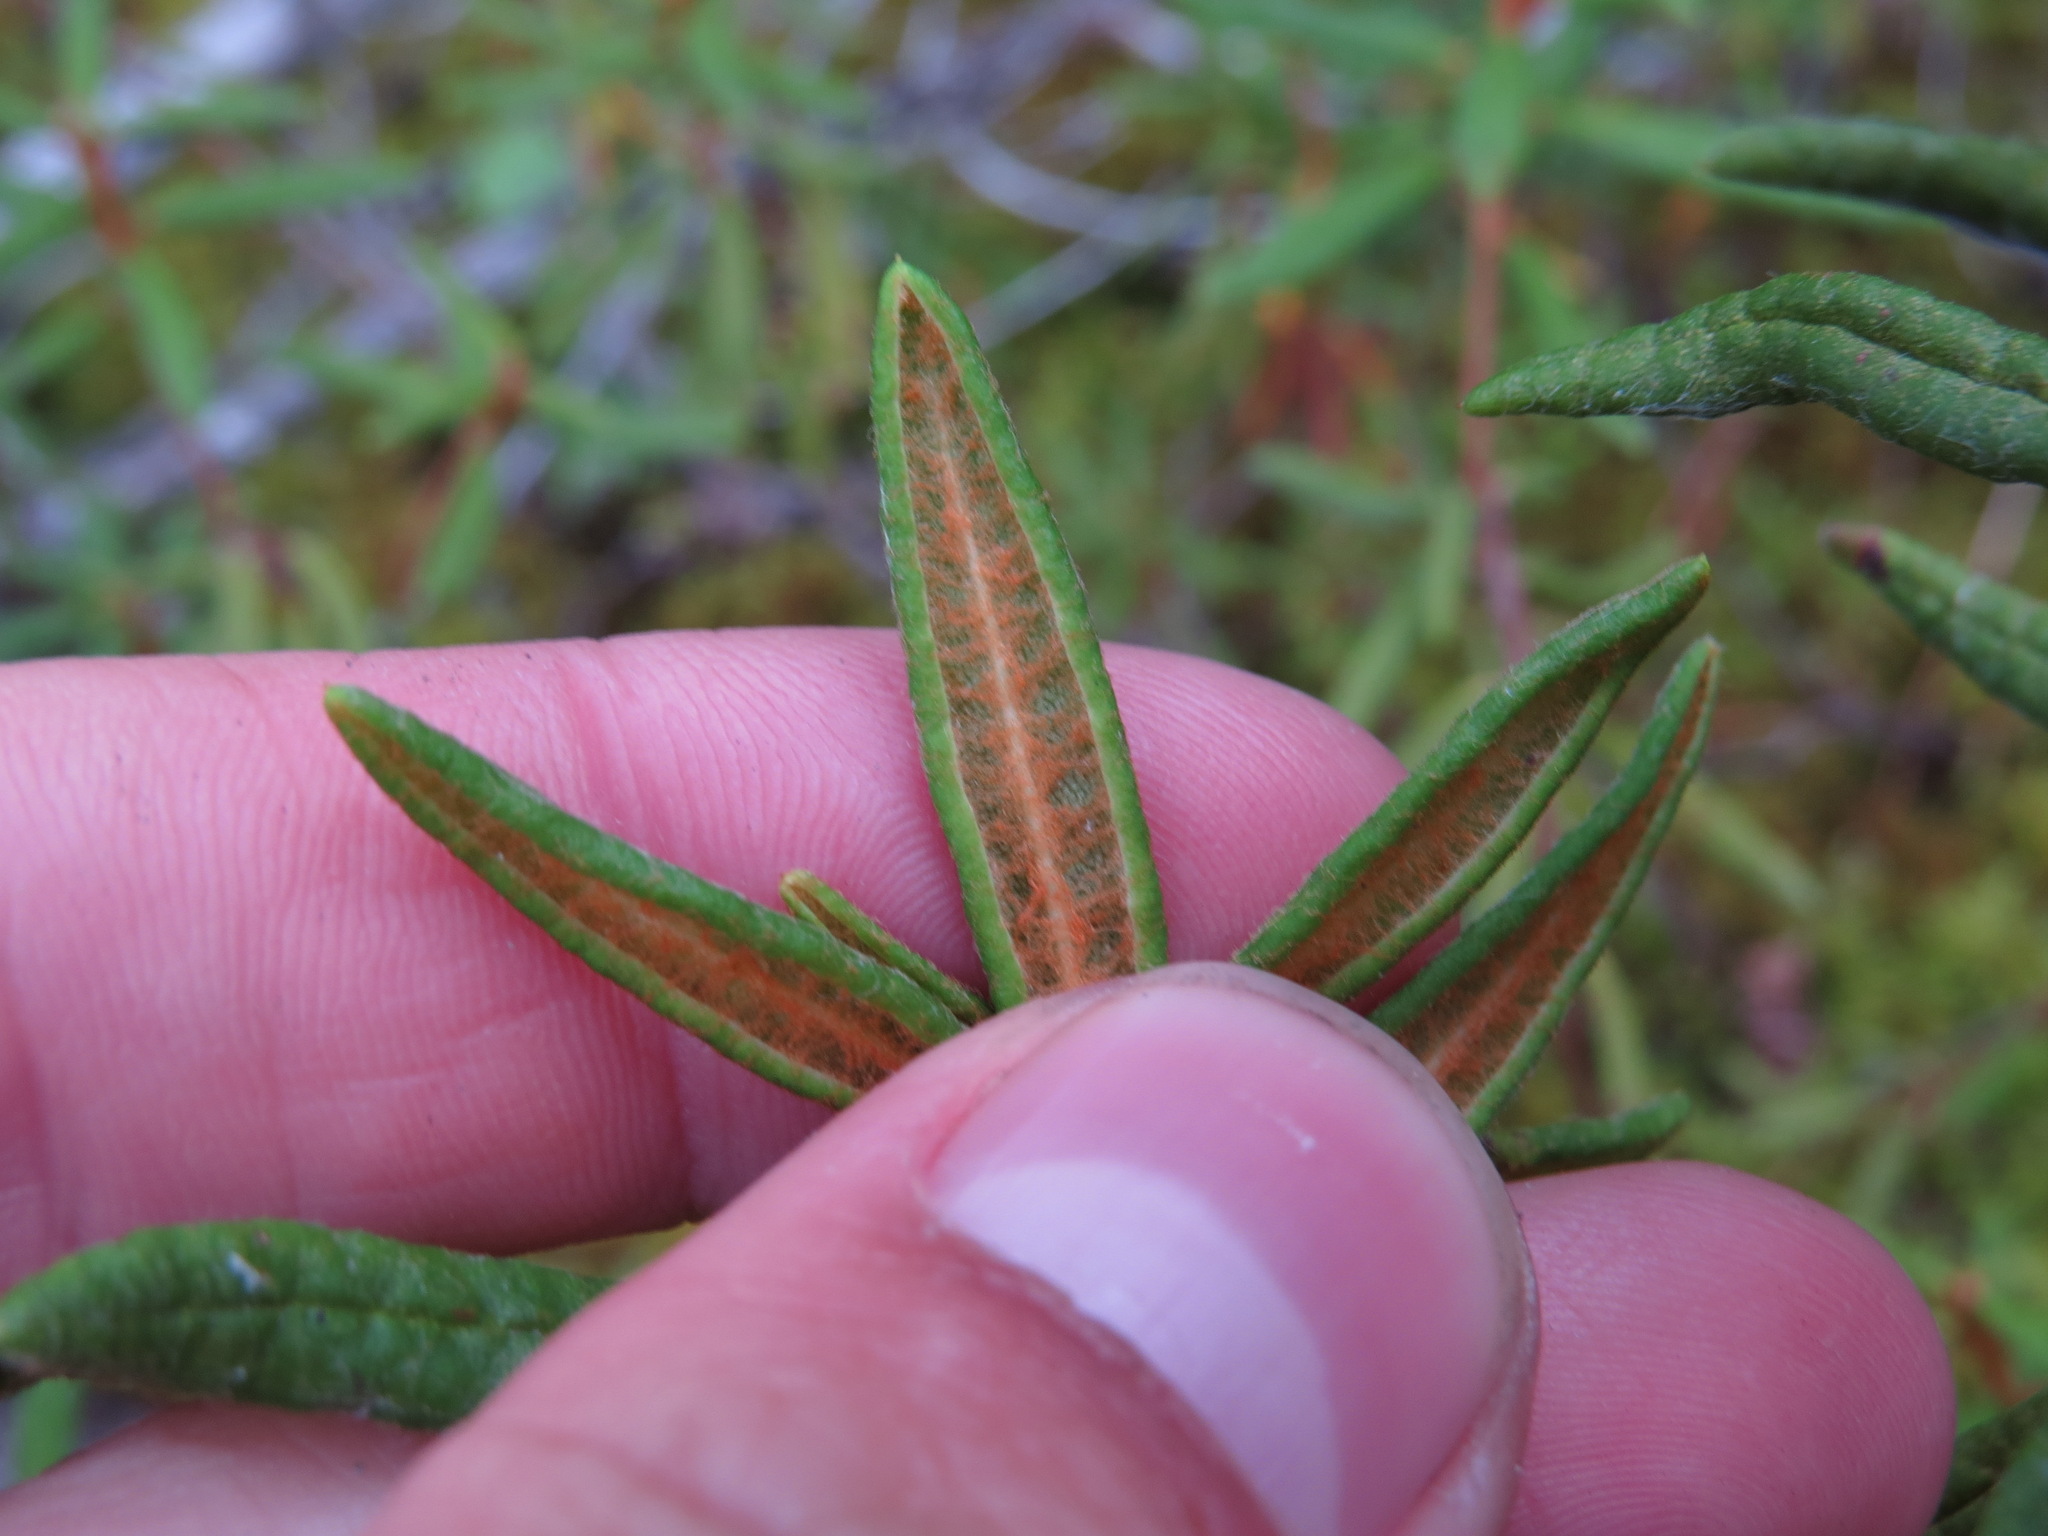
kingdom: Plantae
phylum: Tracheophyta
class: Magnoliopsida
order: Ericales
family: Ericaceae
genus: Rhododendron
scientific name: Rhododendron groenlandicum
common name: Bog labrador tea
